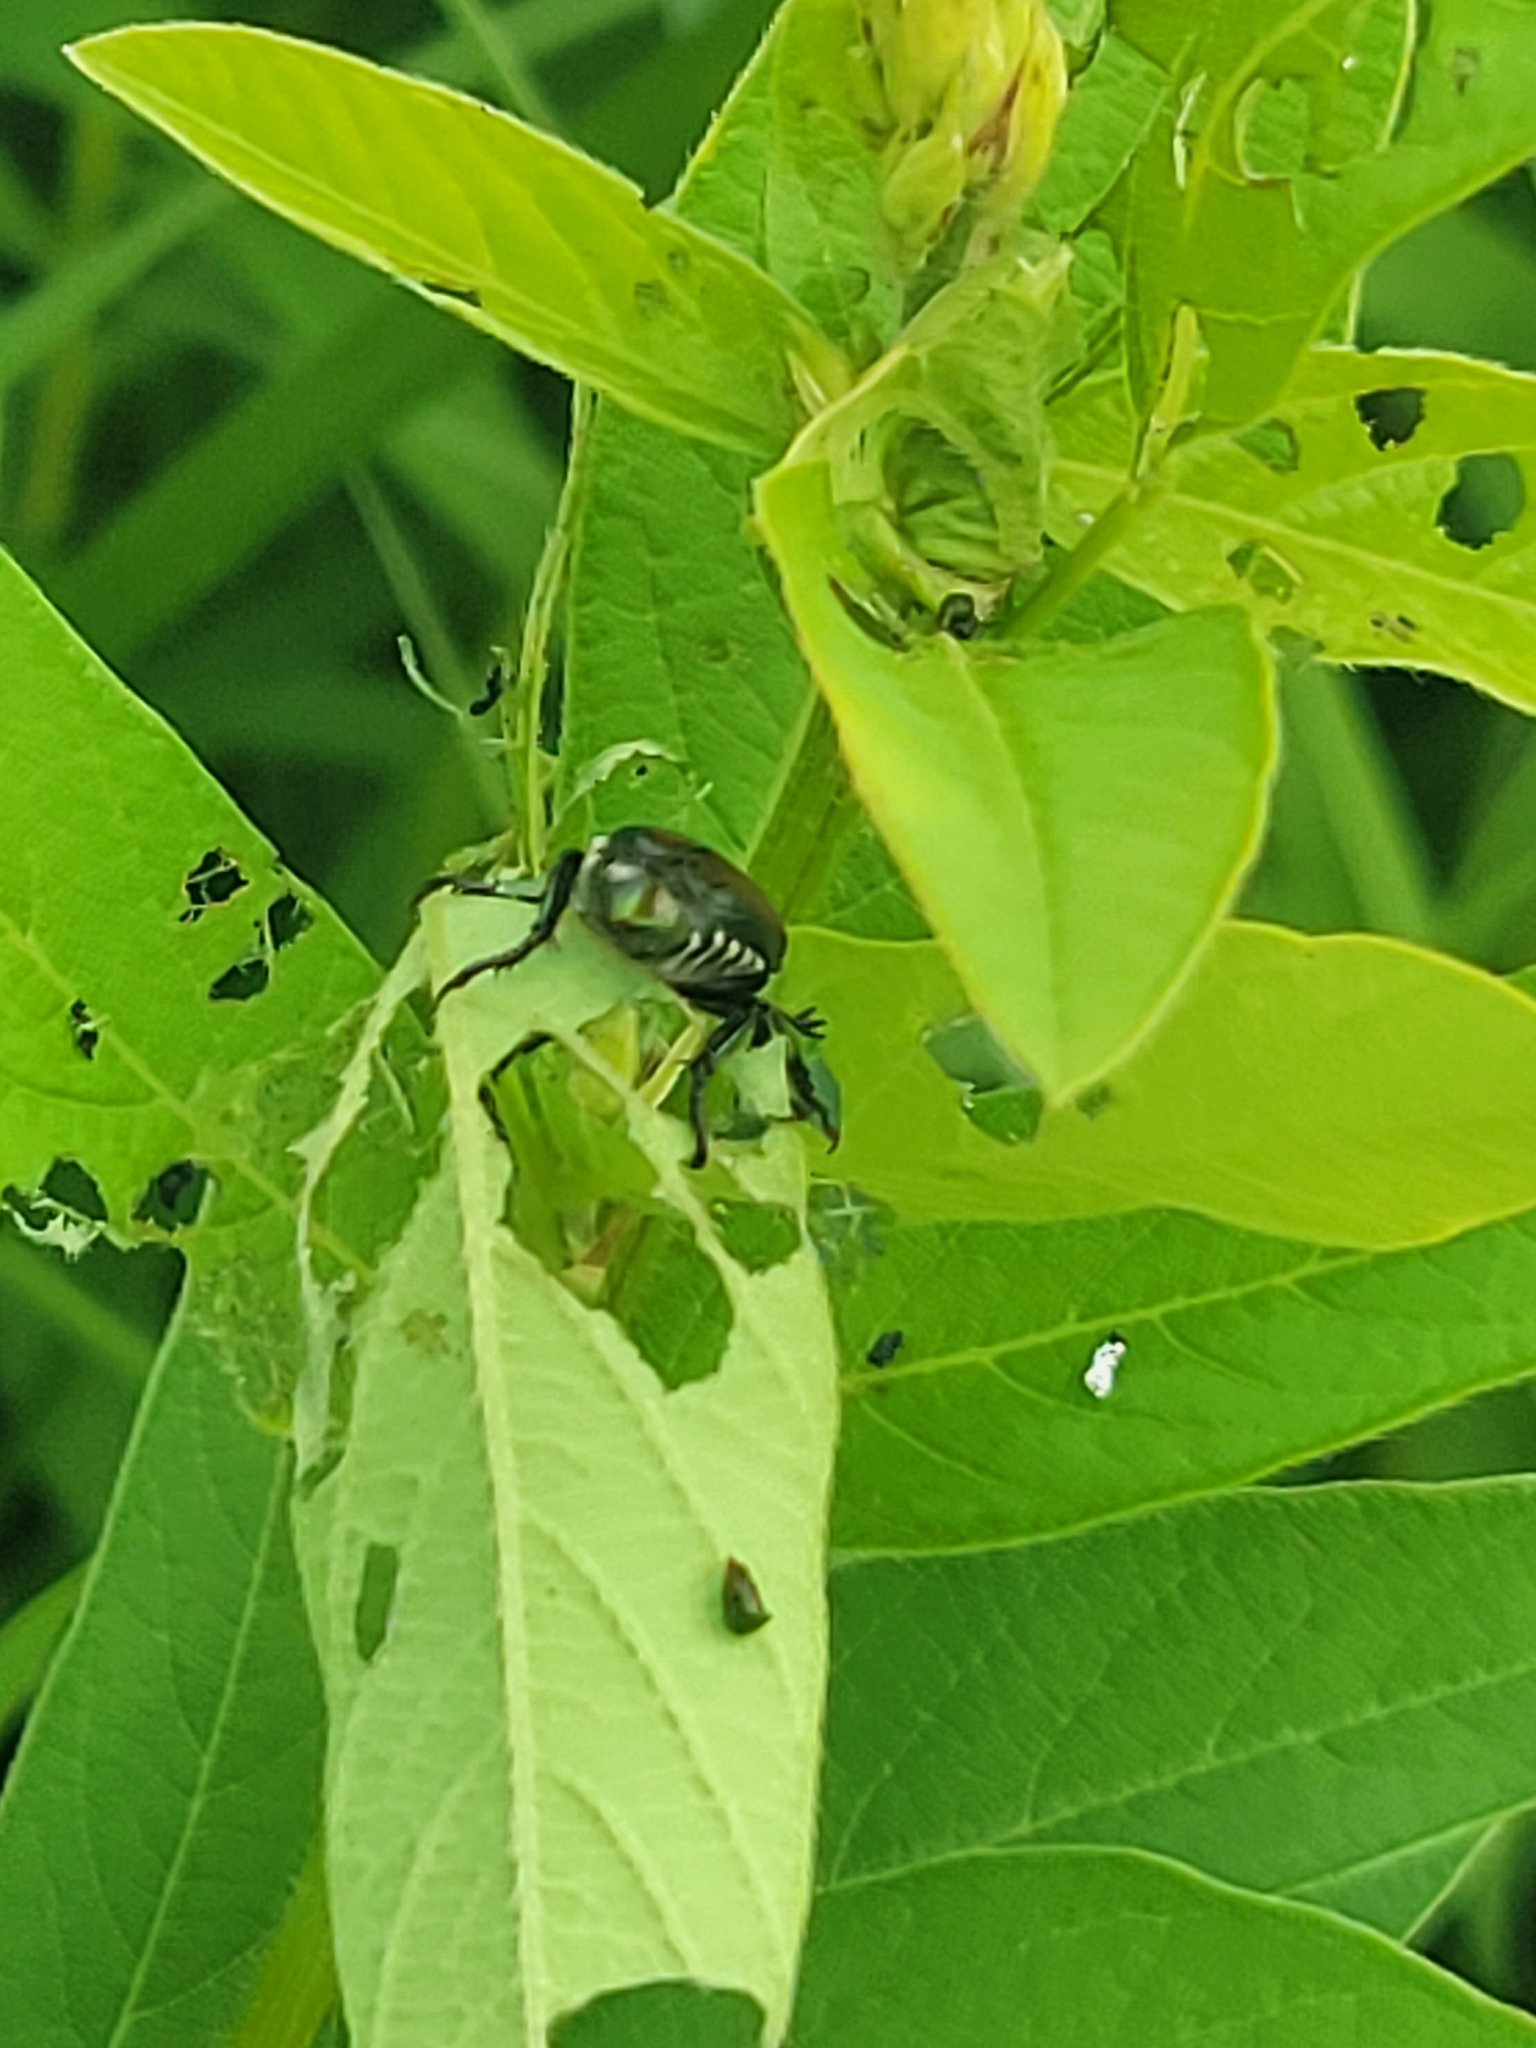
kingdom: Animalia
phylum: Arthropoda
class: Insecta
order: Coleoptera
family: Scarabaeidae
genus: Popillia
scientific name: Popillia japonica
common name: Japanese beetle
